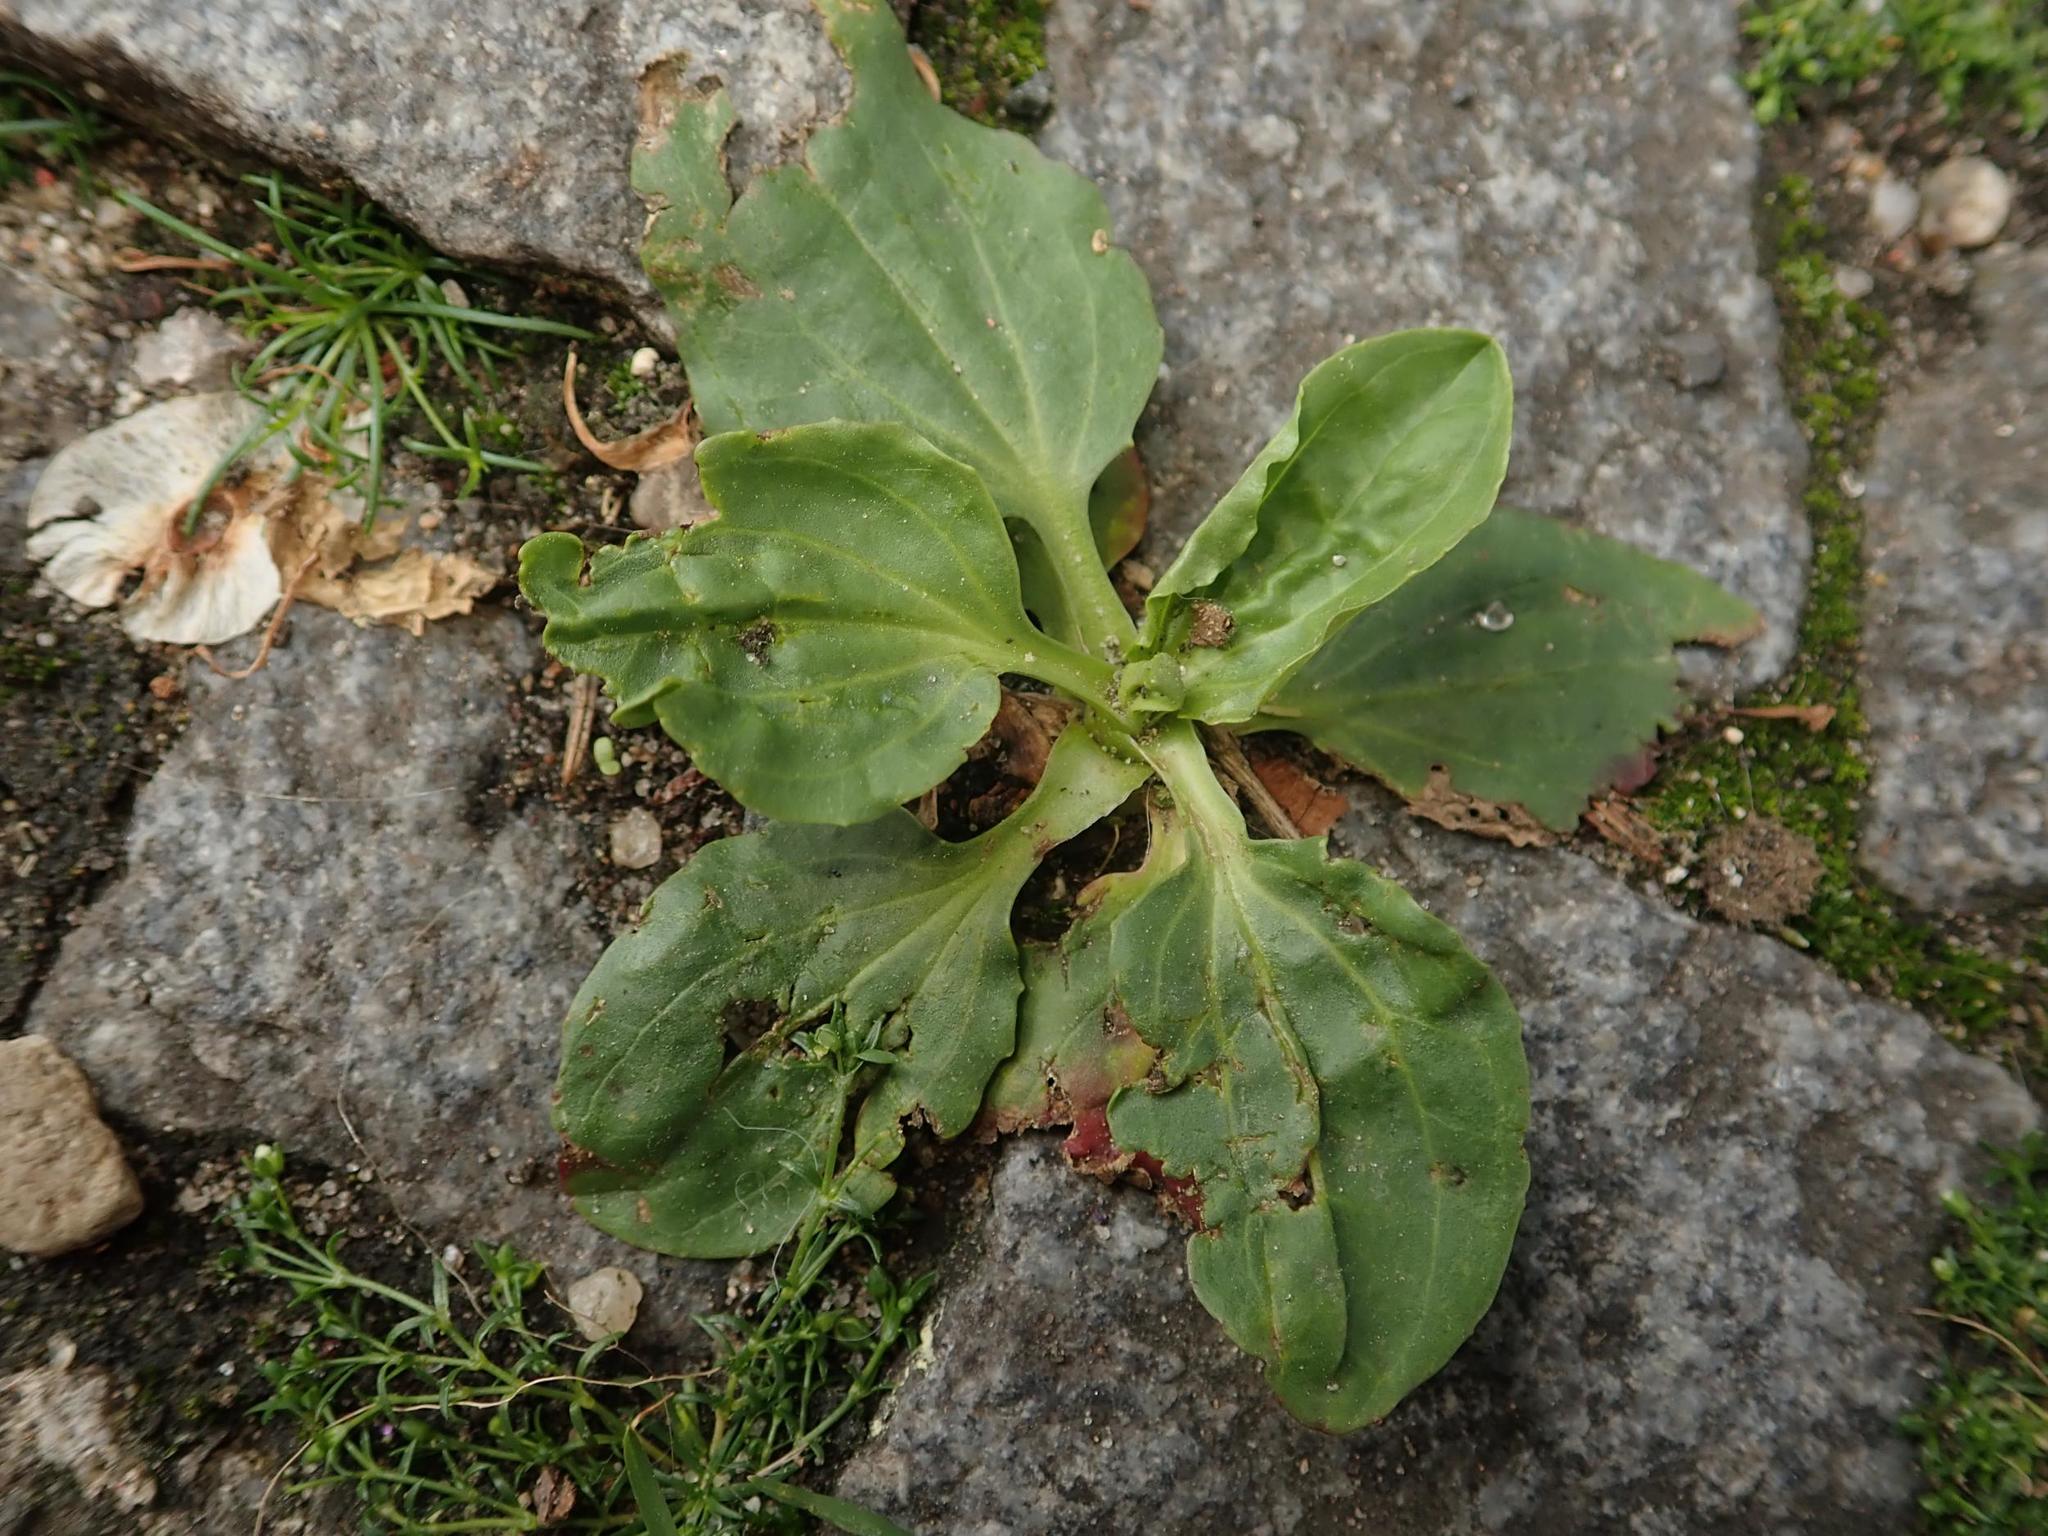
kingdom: Plantae
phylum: Tracheophyta
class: Magnoliopsida
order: Lamiales
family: Plantaginaceae
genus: Plantago
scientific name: Plantago major
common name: Common plantain
